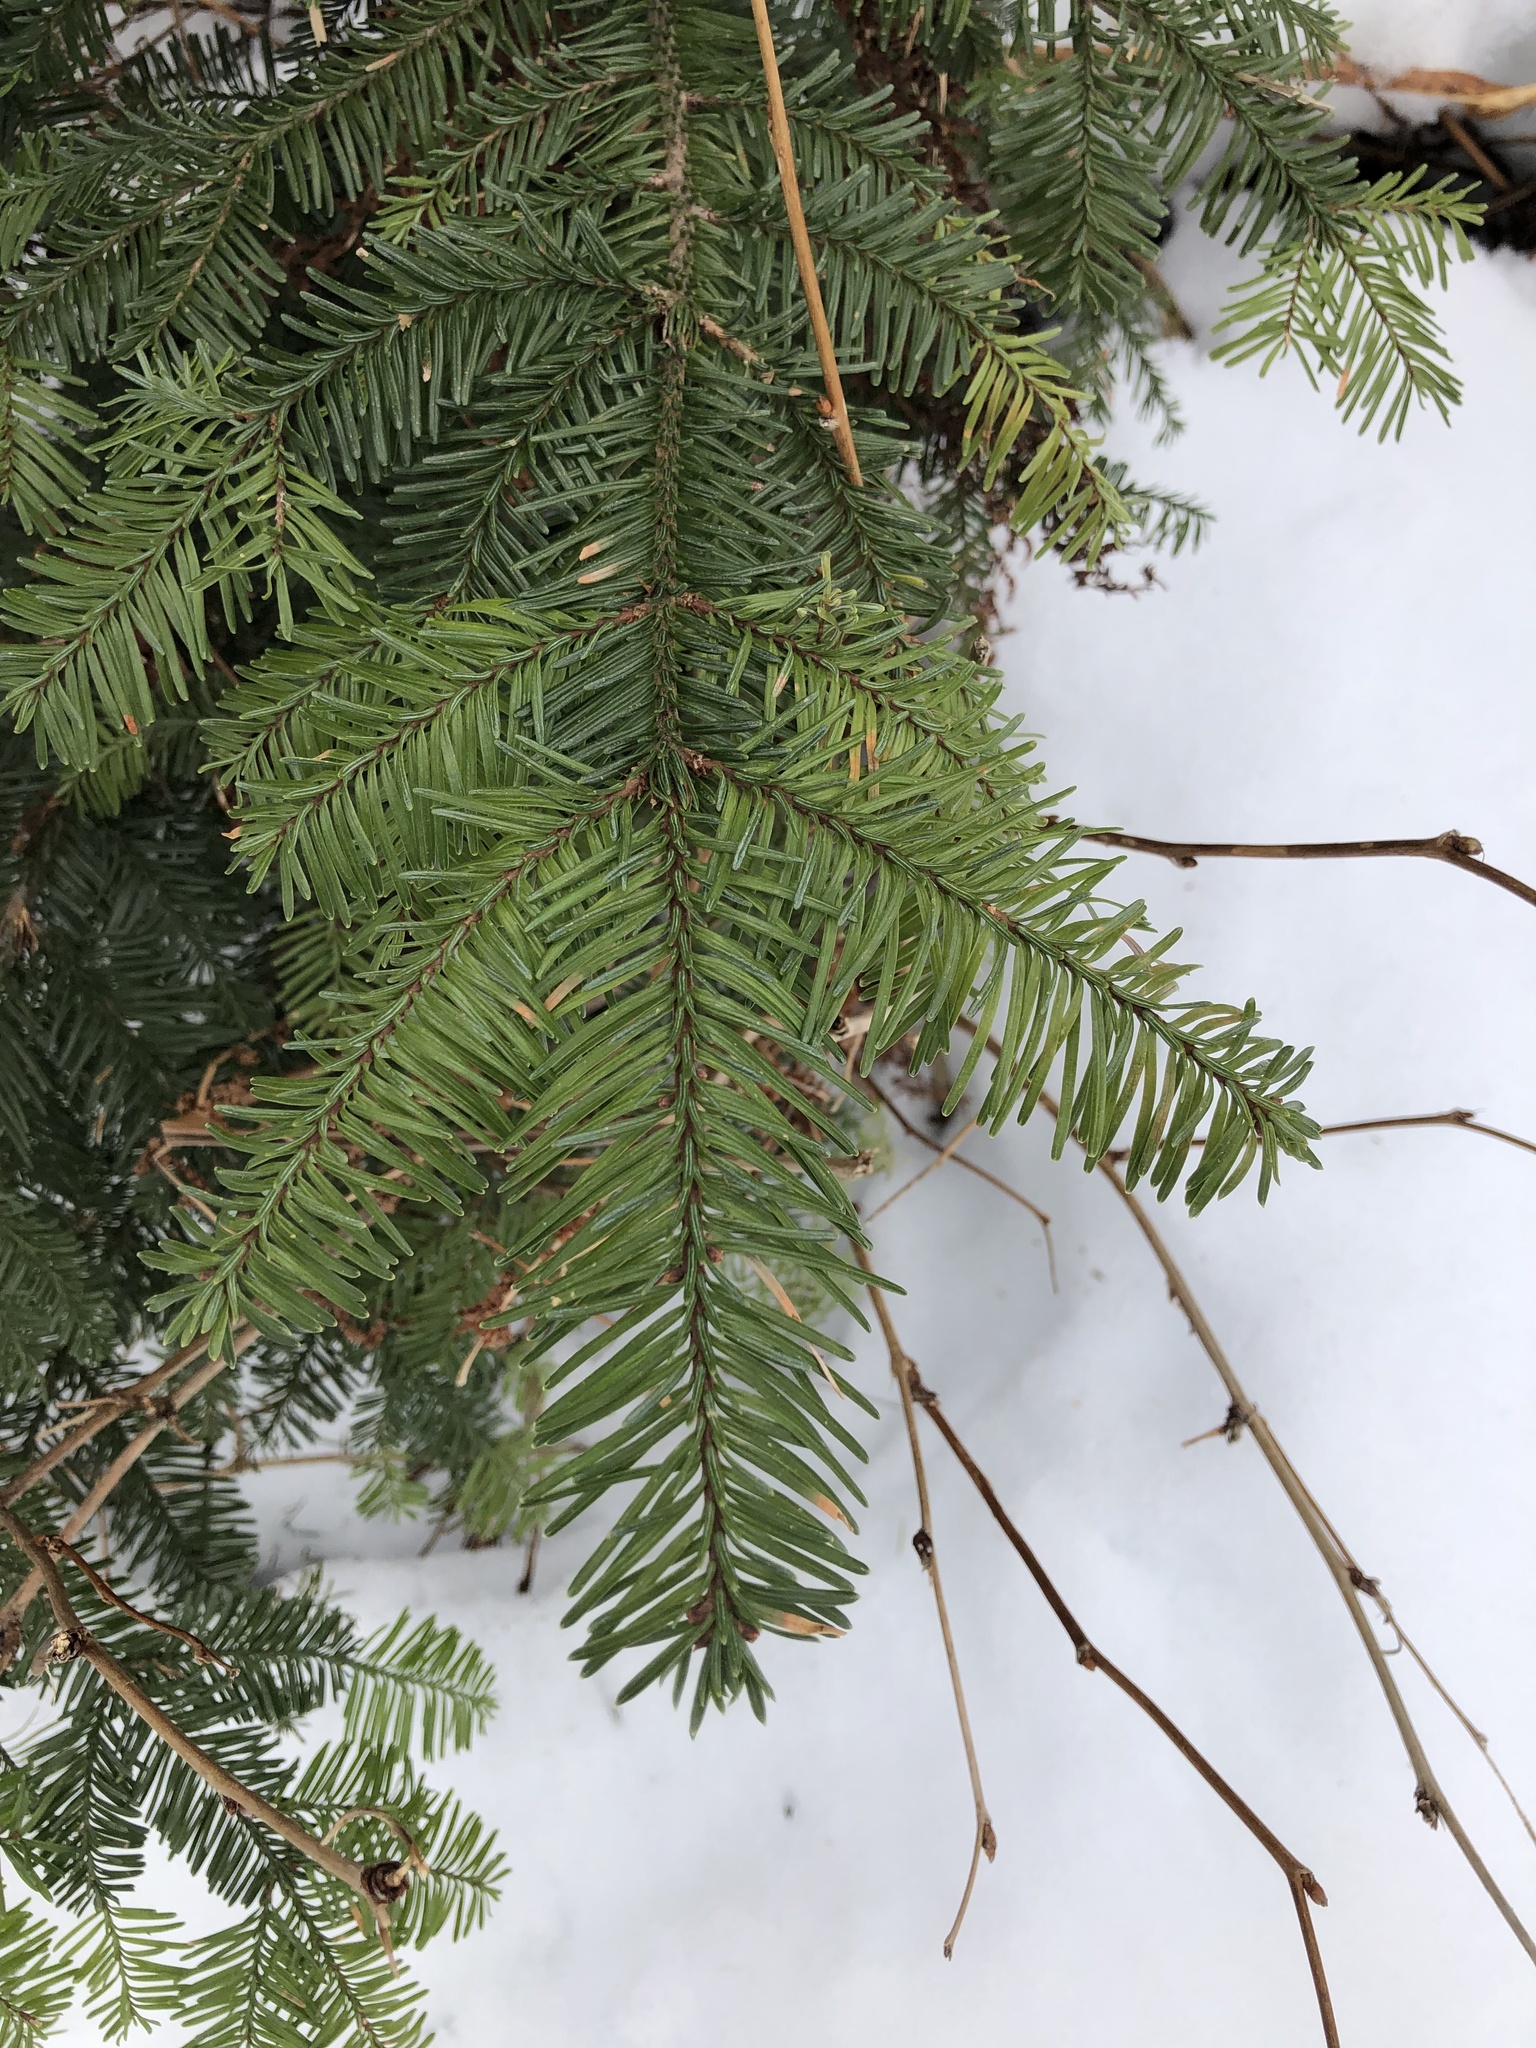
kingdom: Plantae
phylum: Tracheophyta
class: Pinopsida
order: Pinales
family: Pinaceae
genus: Abies
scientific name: Abies procera
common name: Noble fir
